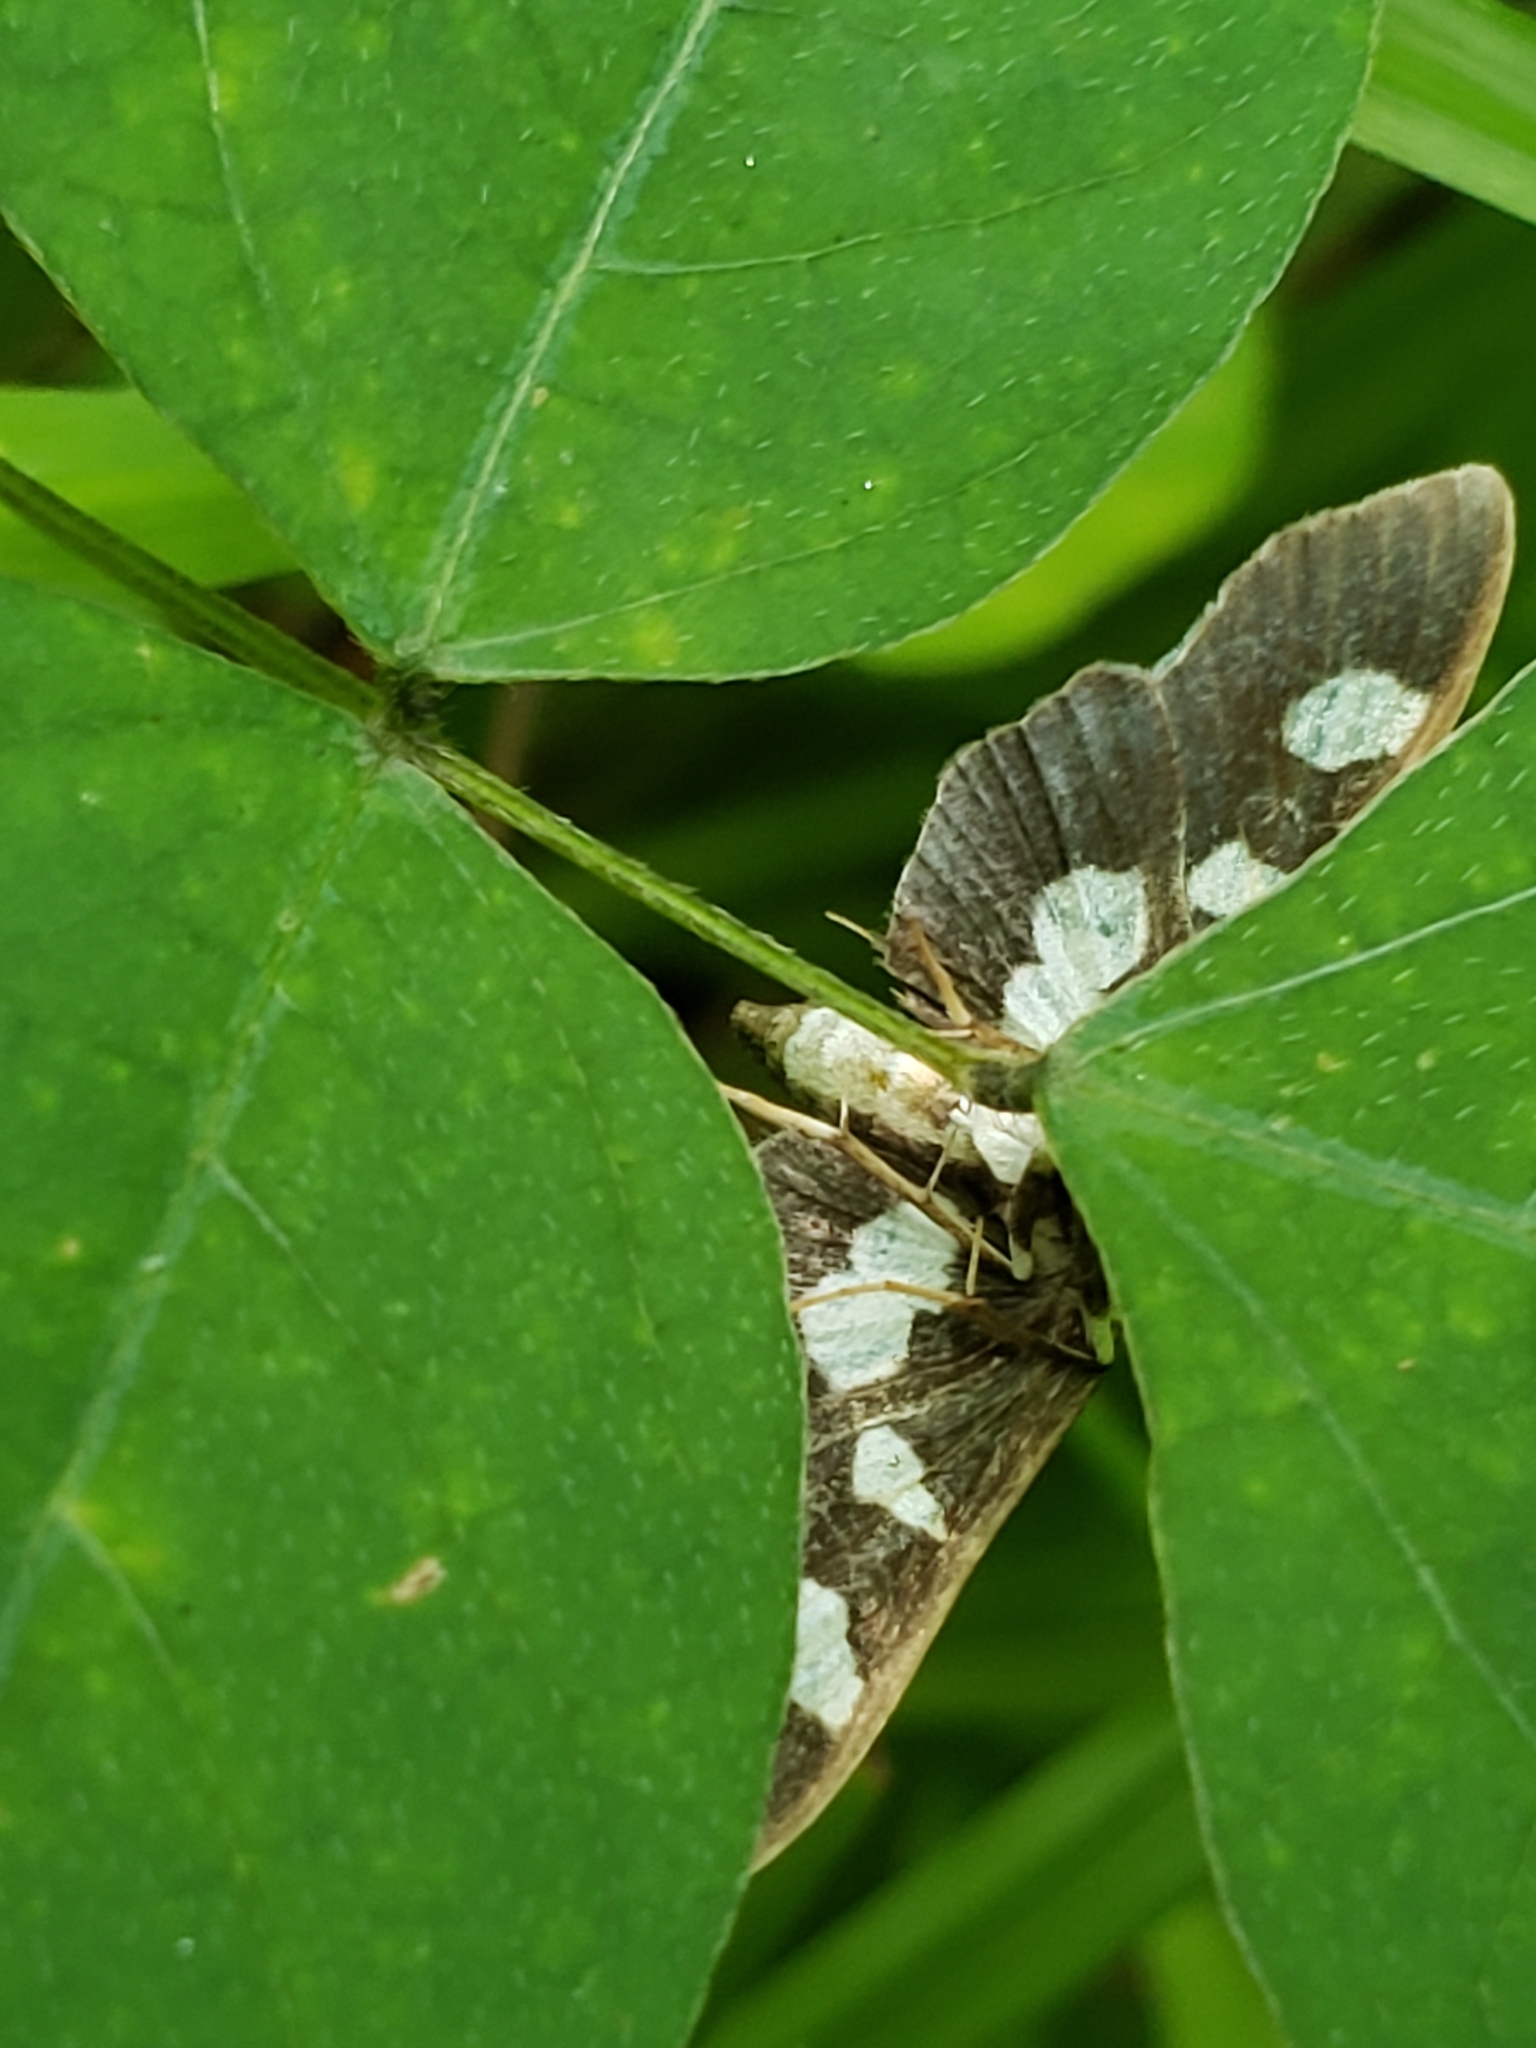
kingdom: Animalia
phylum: Arthropoda
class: Insecta
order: Lepidoptera
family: Crambidae
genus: Desmia
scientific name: Desmia funeralis
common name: Grape leaf folder moth
